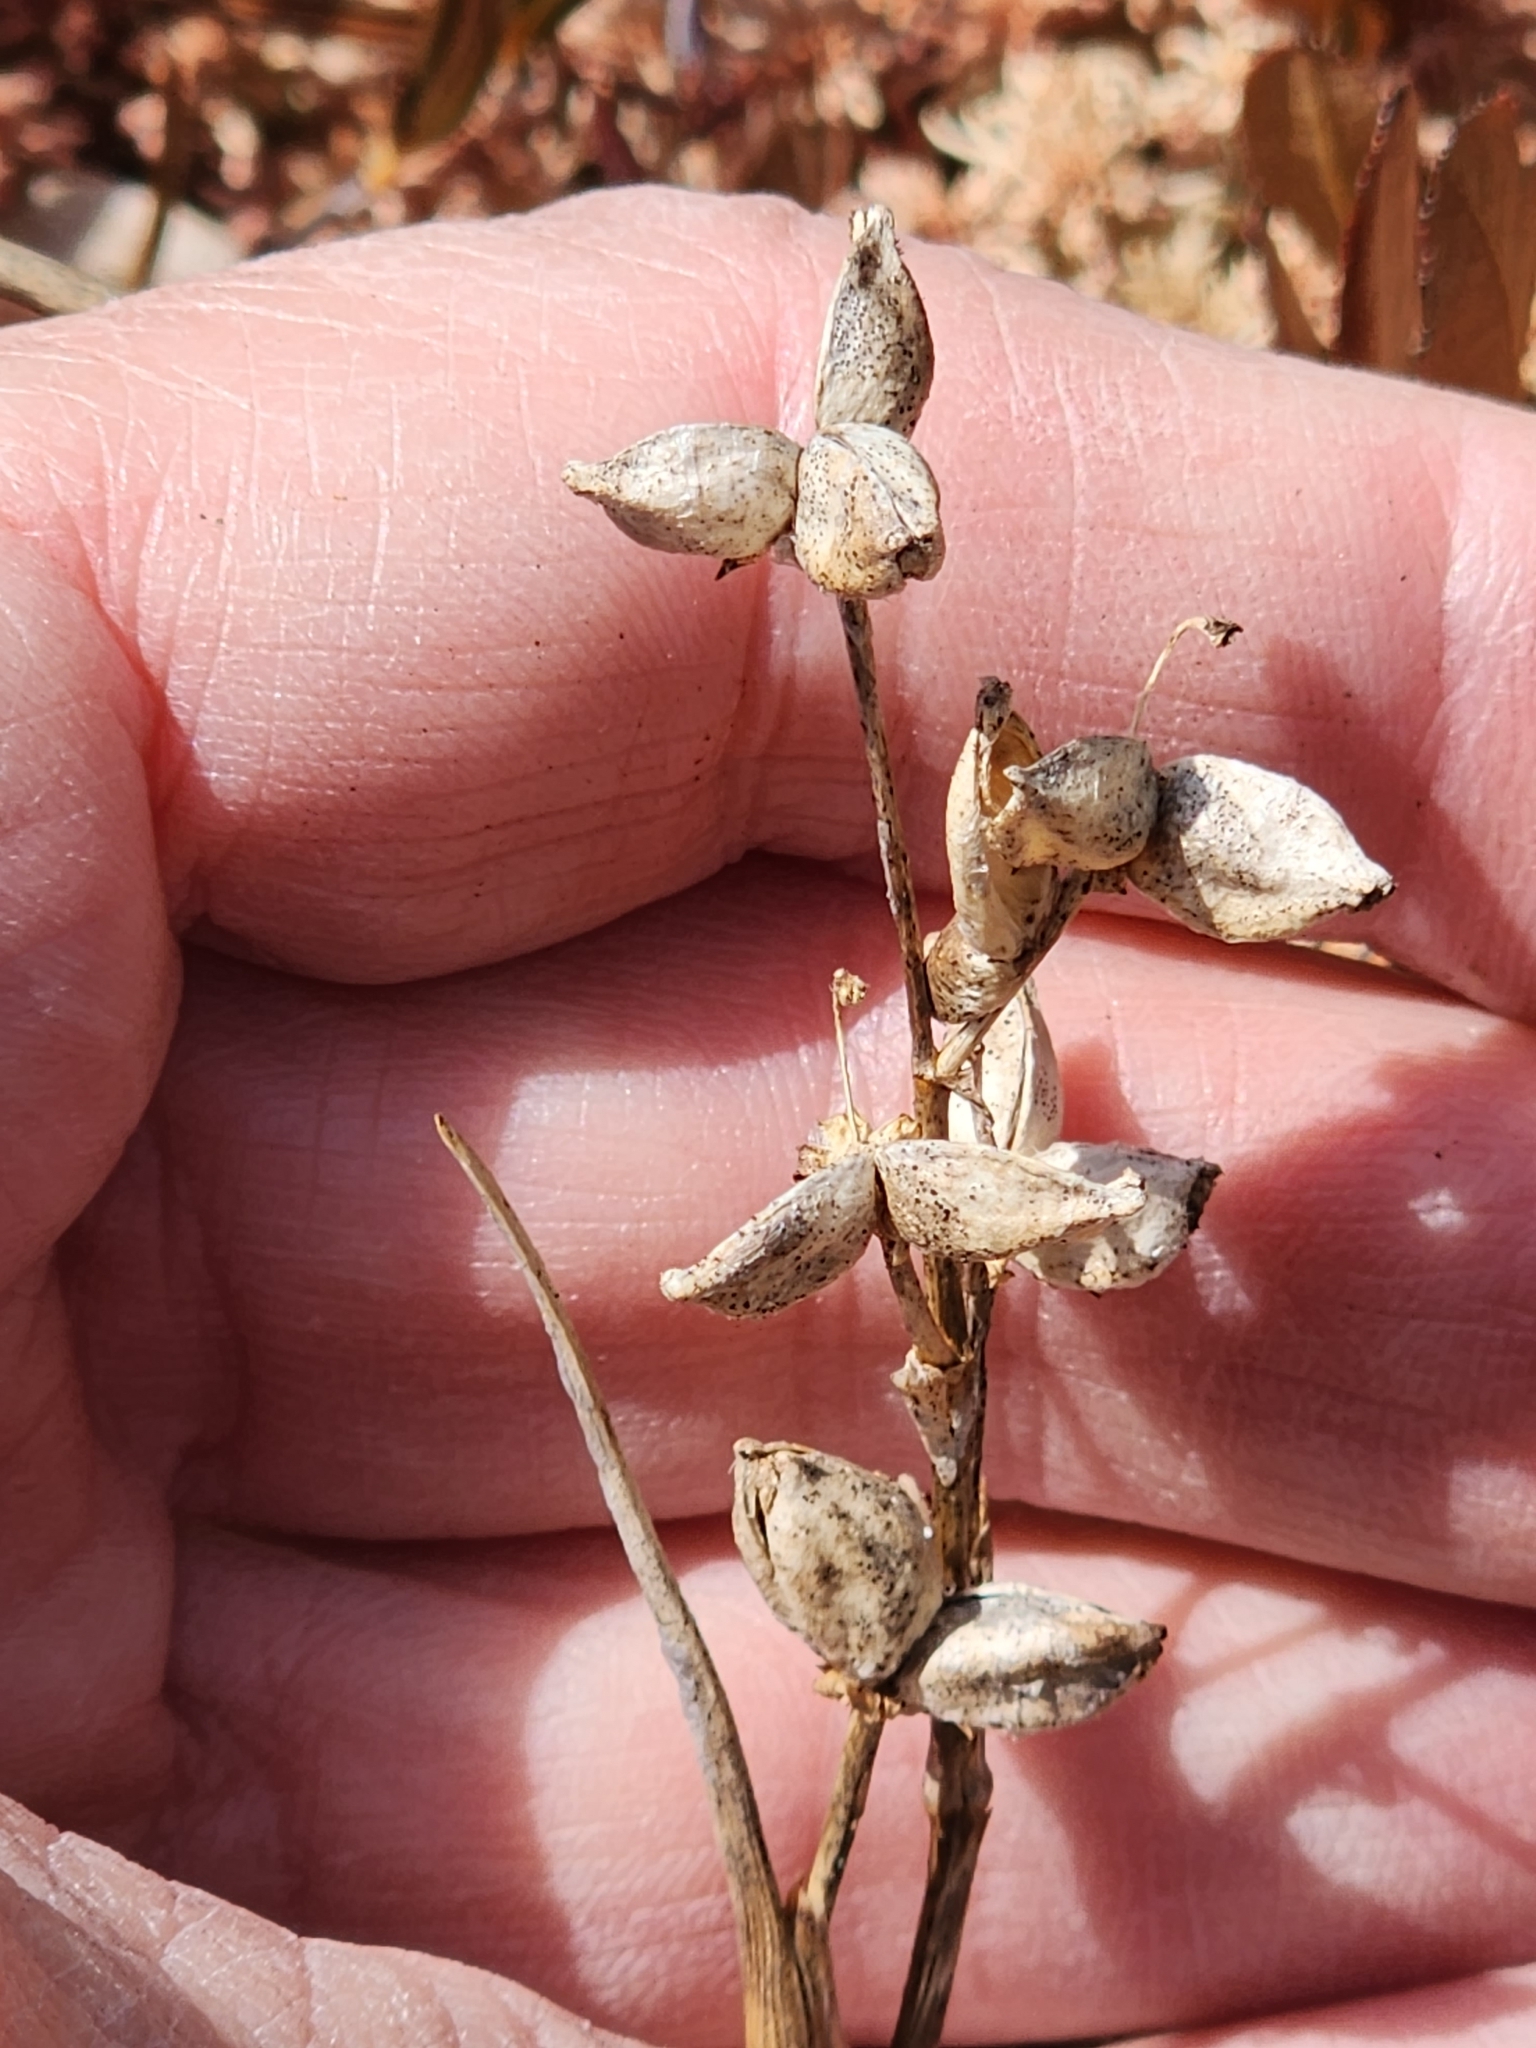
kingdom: Plantae
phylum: Tracheophyta
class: Liliopsida
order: Alismatales
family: Scheuchzeriaceae
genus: Scheuchzeria
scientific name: Scheuchzeria palustris
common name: Rannoch-rush
